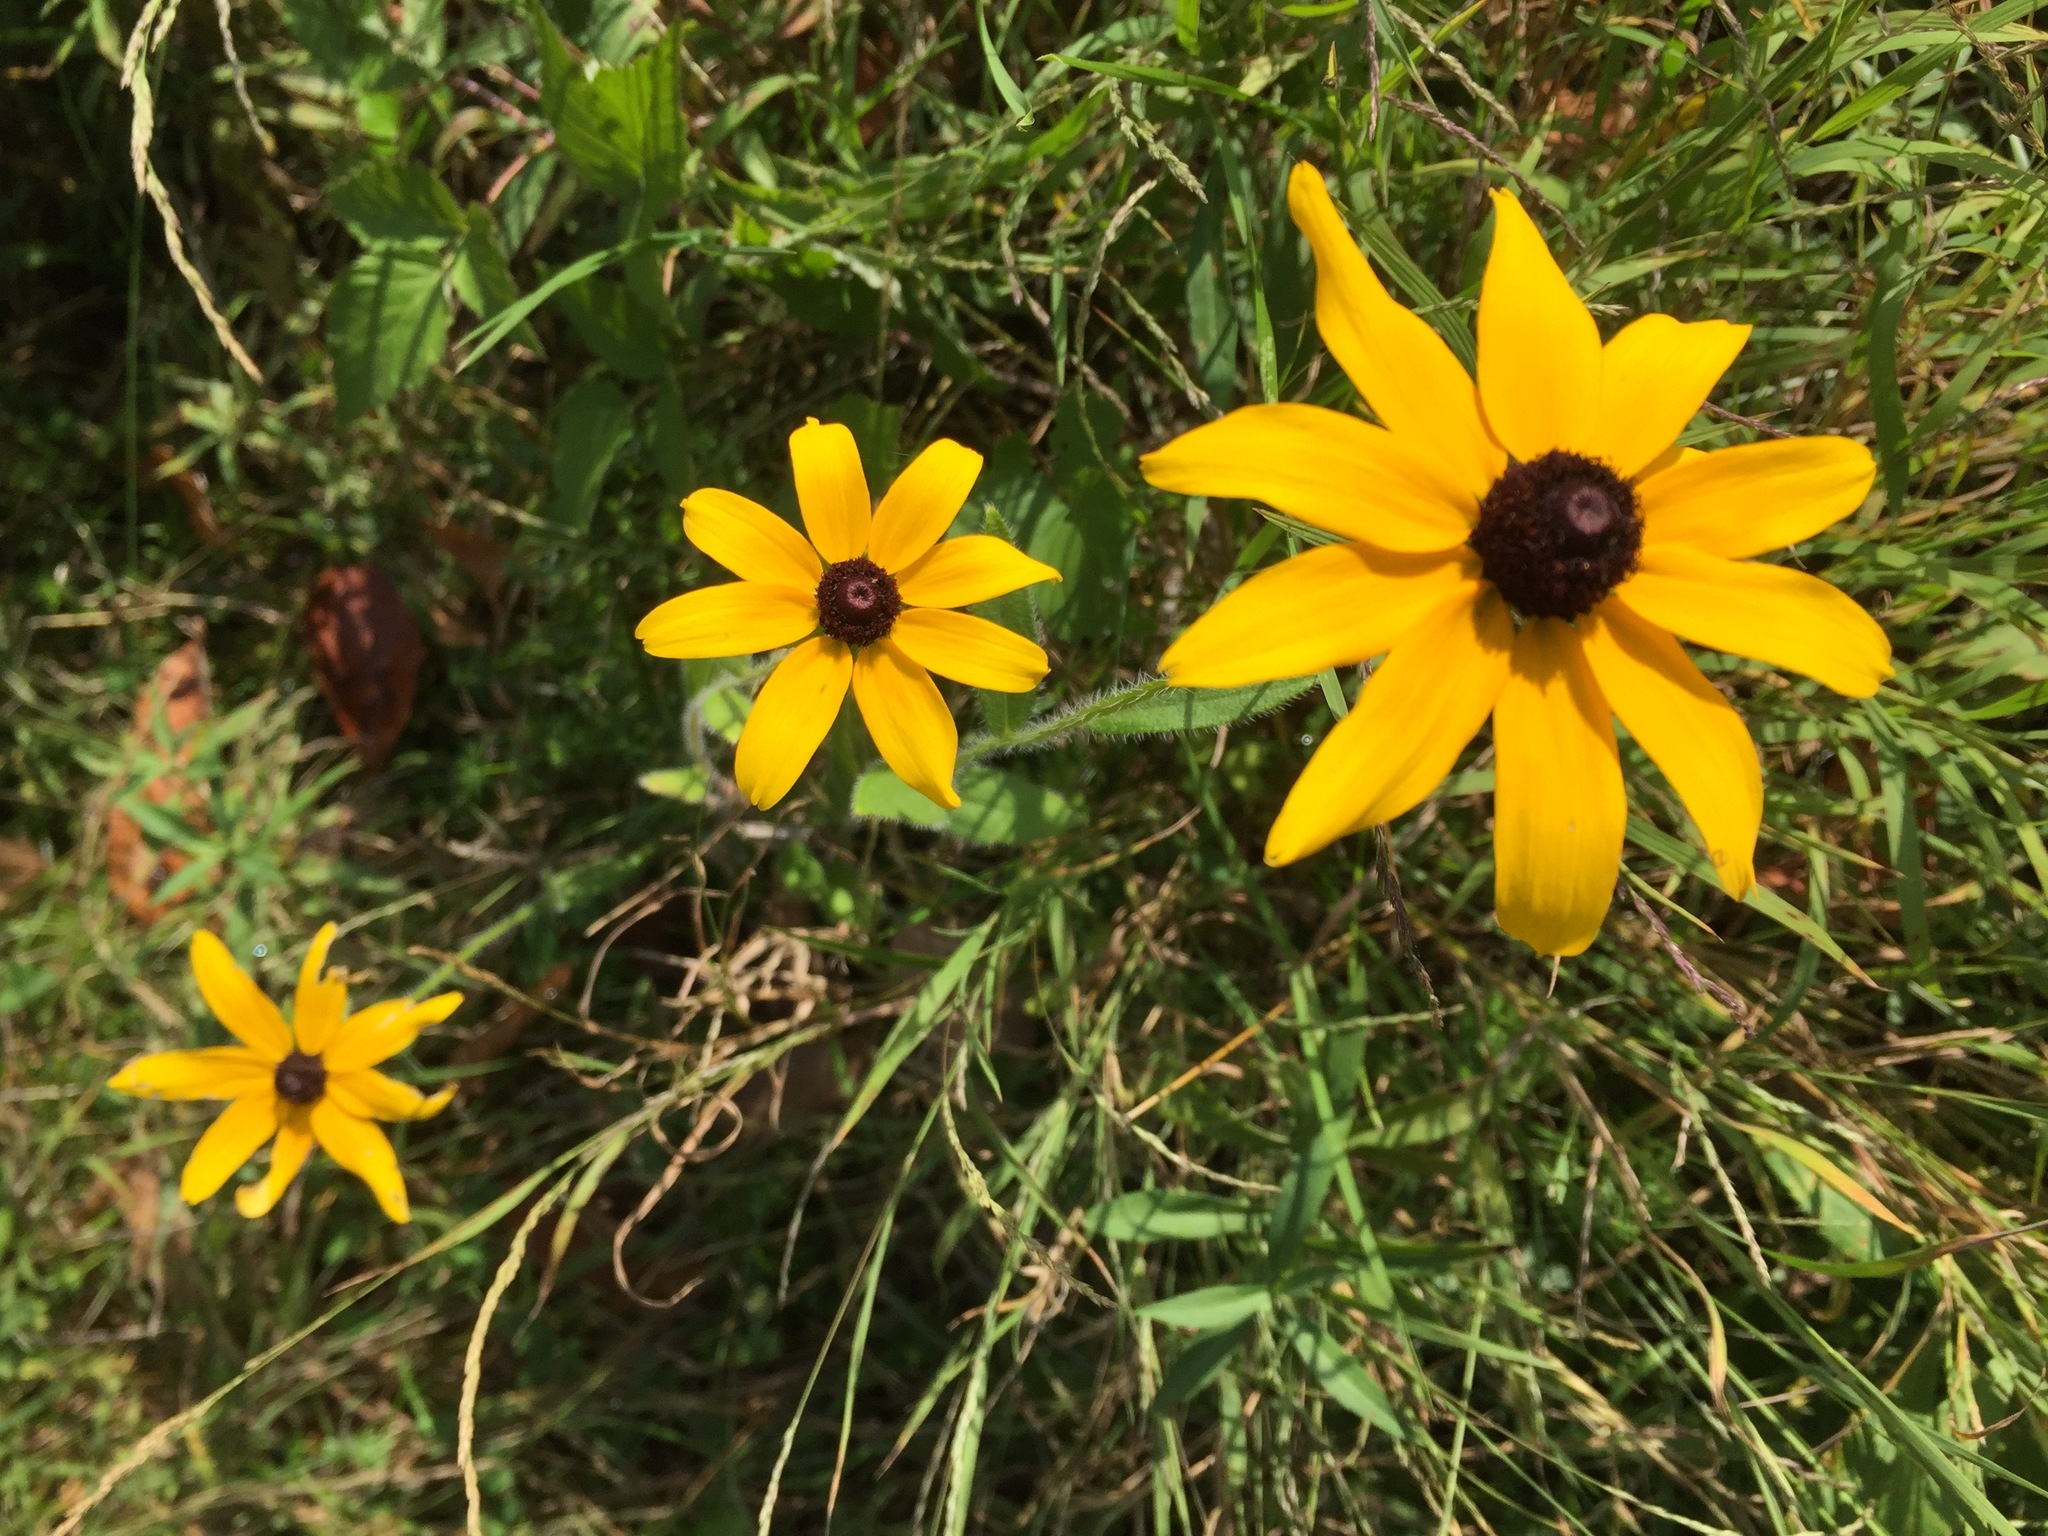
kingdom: Plantae
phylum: Tracheophyta
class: Magnoliopsida
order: Asterales
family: Asteraceae
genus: Rudbeckia
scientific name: Rudbeckia hirta
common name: Black-eyed-susan
